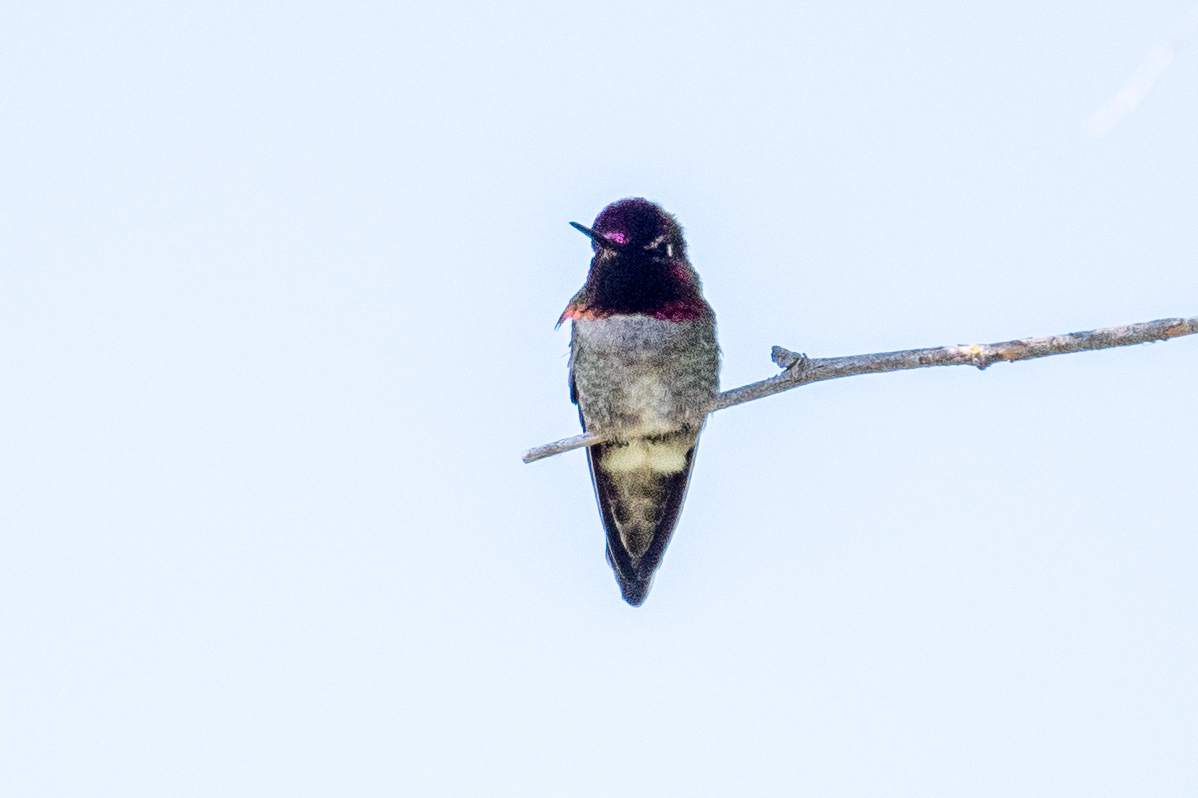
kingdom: Animalia
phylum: Chordata
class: Aves
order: Apodiformes
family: Trochilidae
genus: Calypte
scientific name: Calypte anna
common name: Anna's hummingbird
